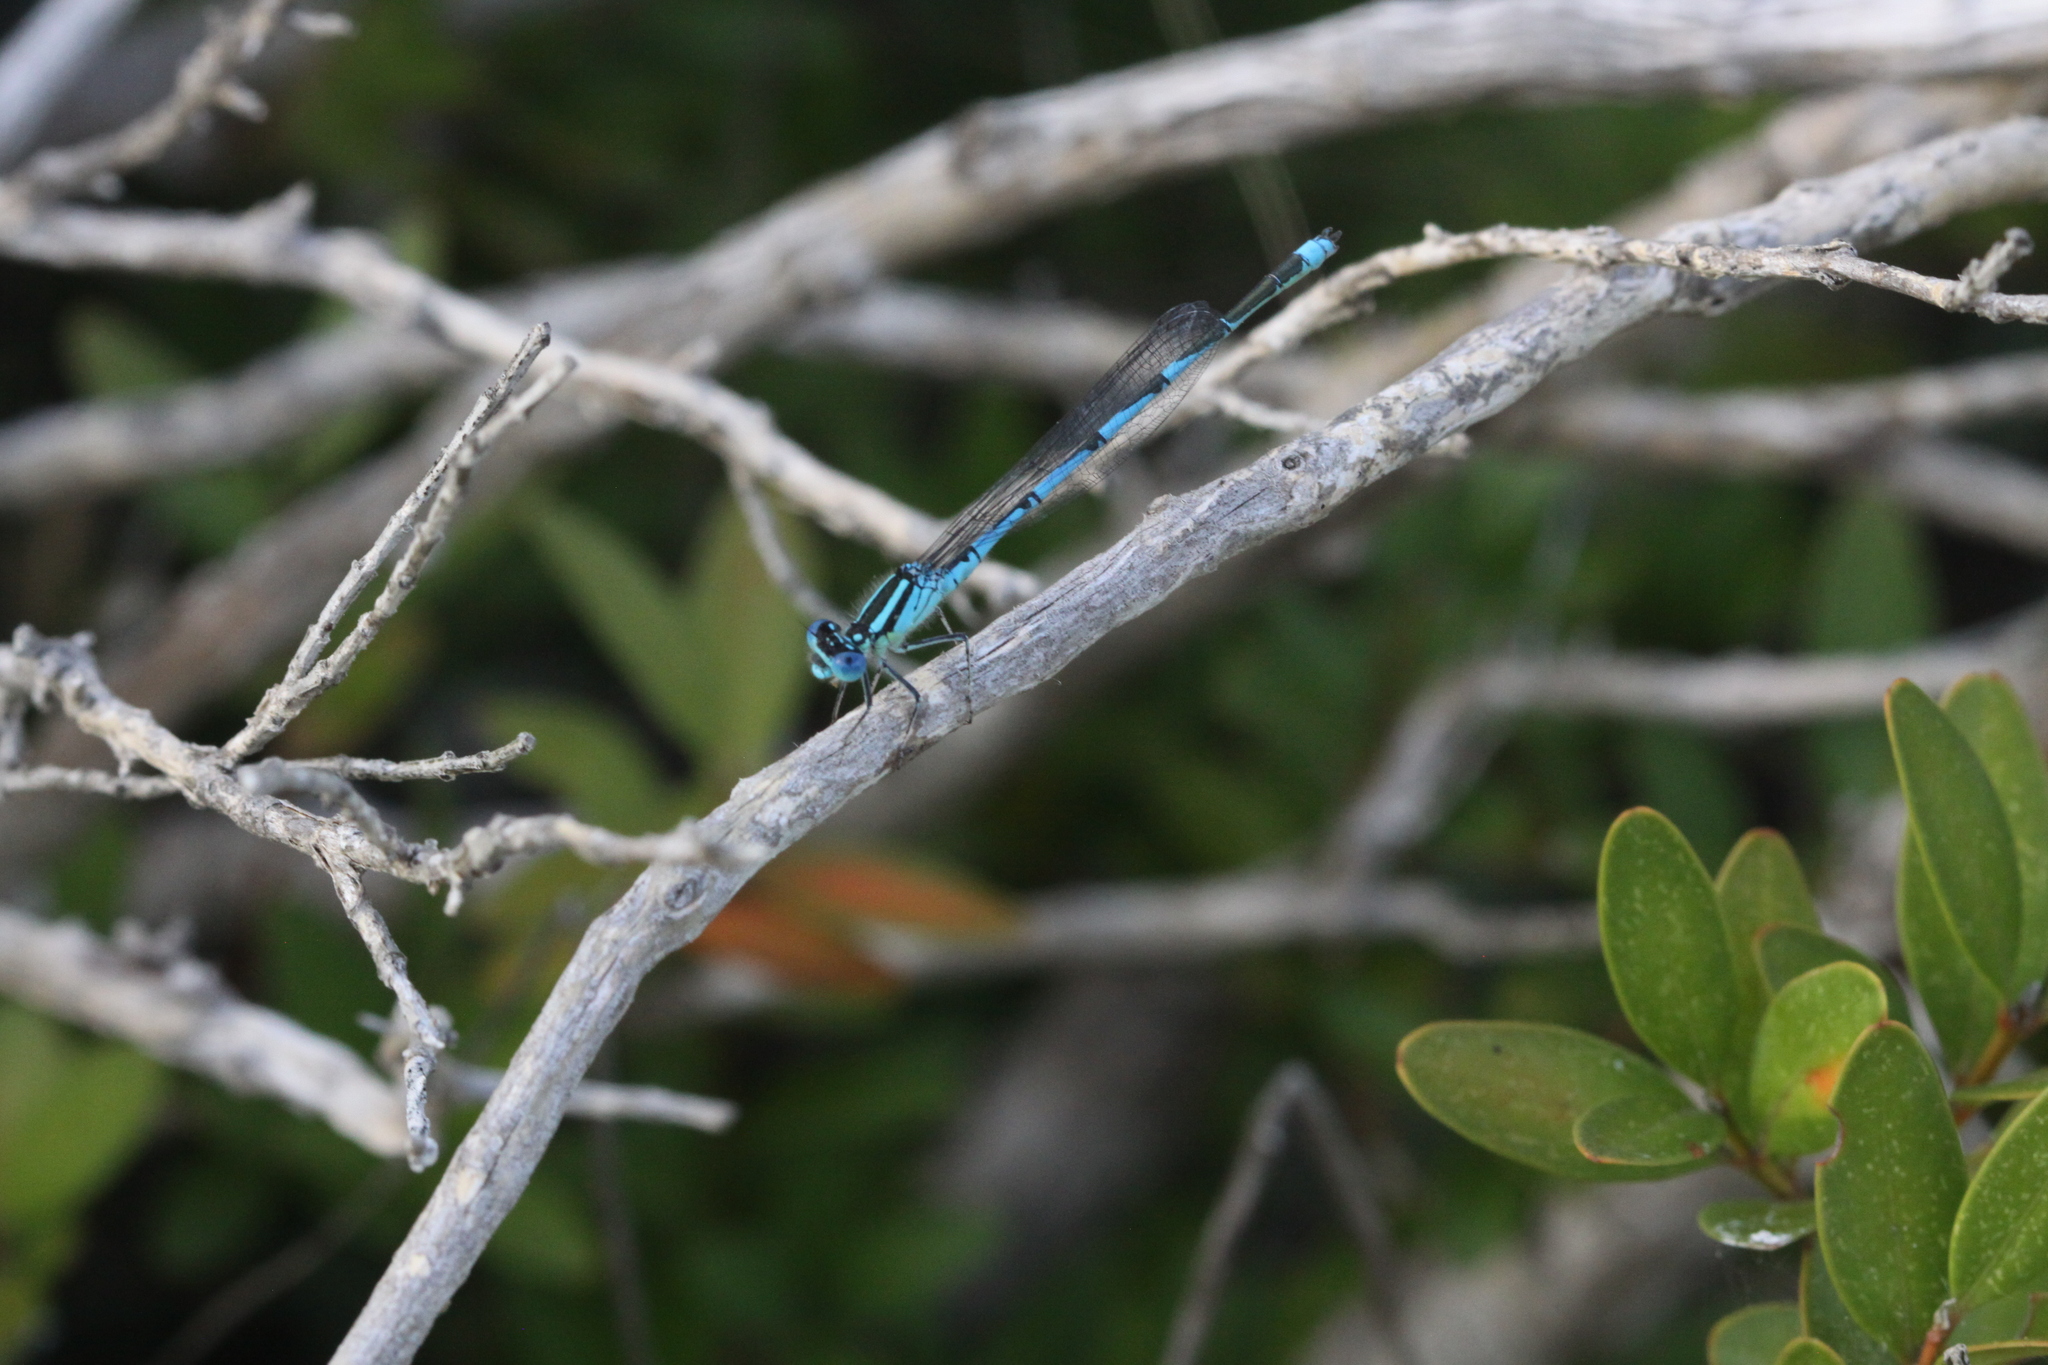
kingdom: Animalia
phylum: Arthropoda
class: Insecta
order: Odonata
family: Coenagrionidae
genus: Erythromma
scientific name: Erythromma lindenii
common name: Blue-eye
